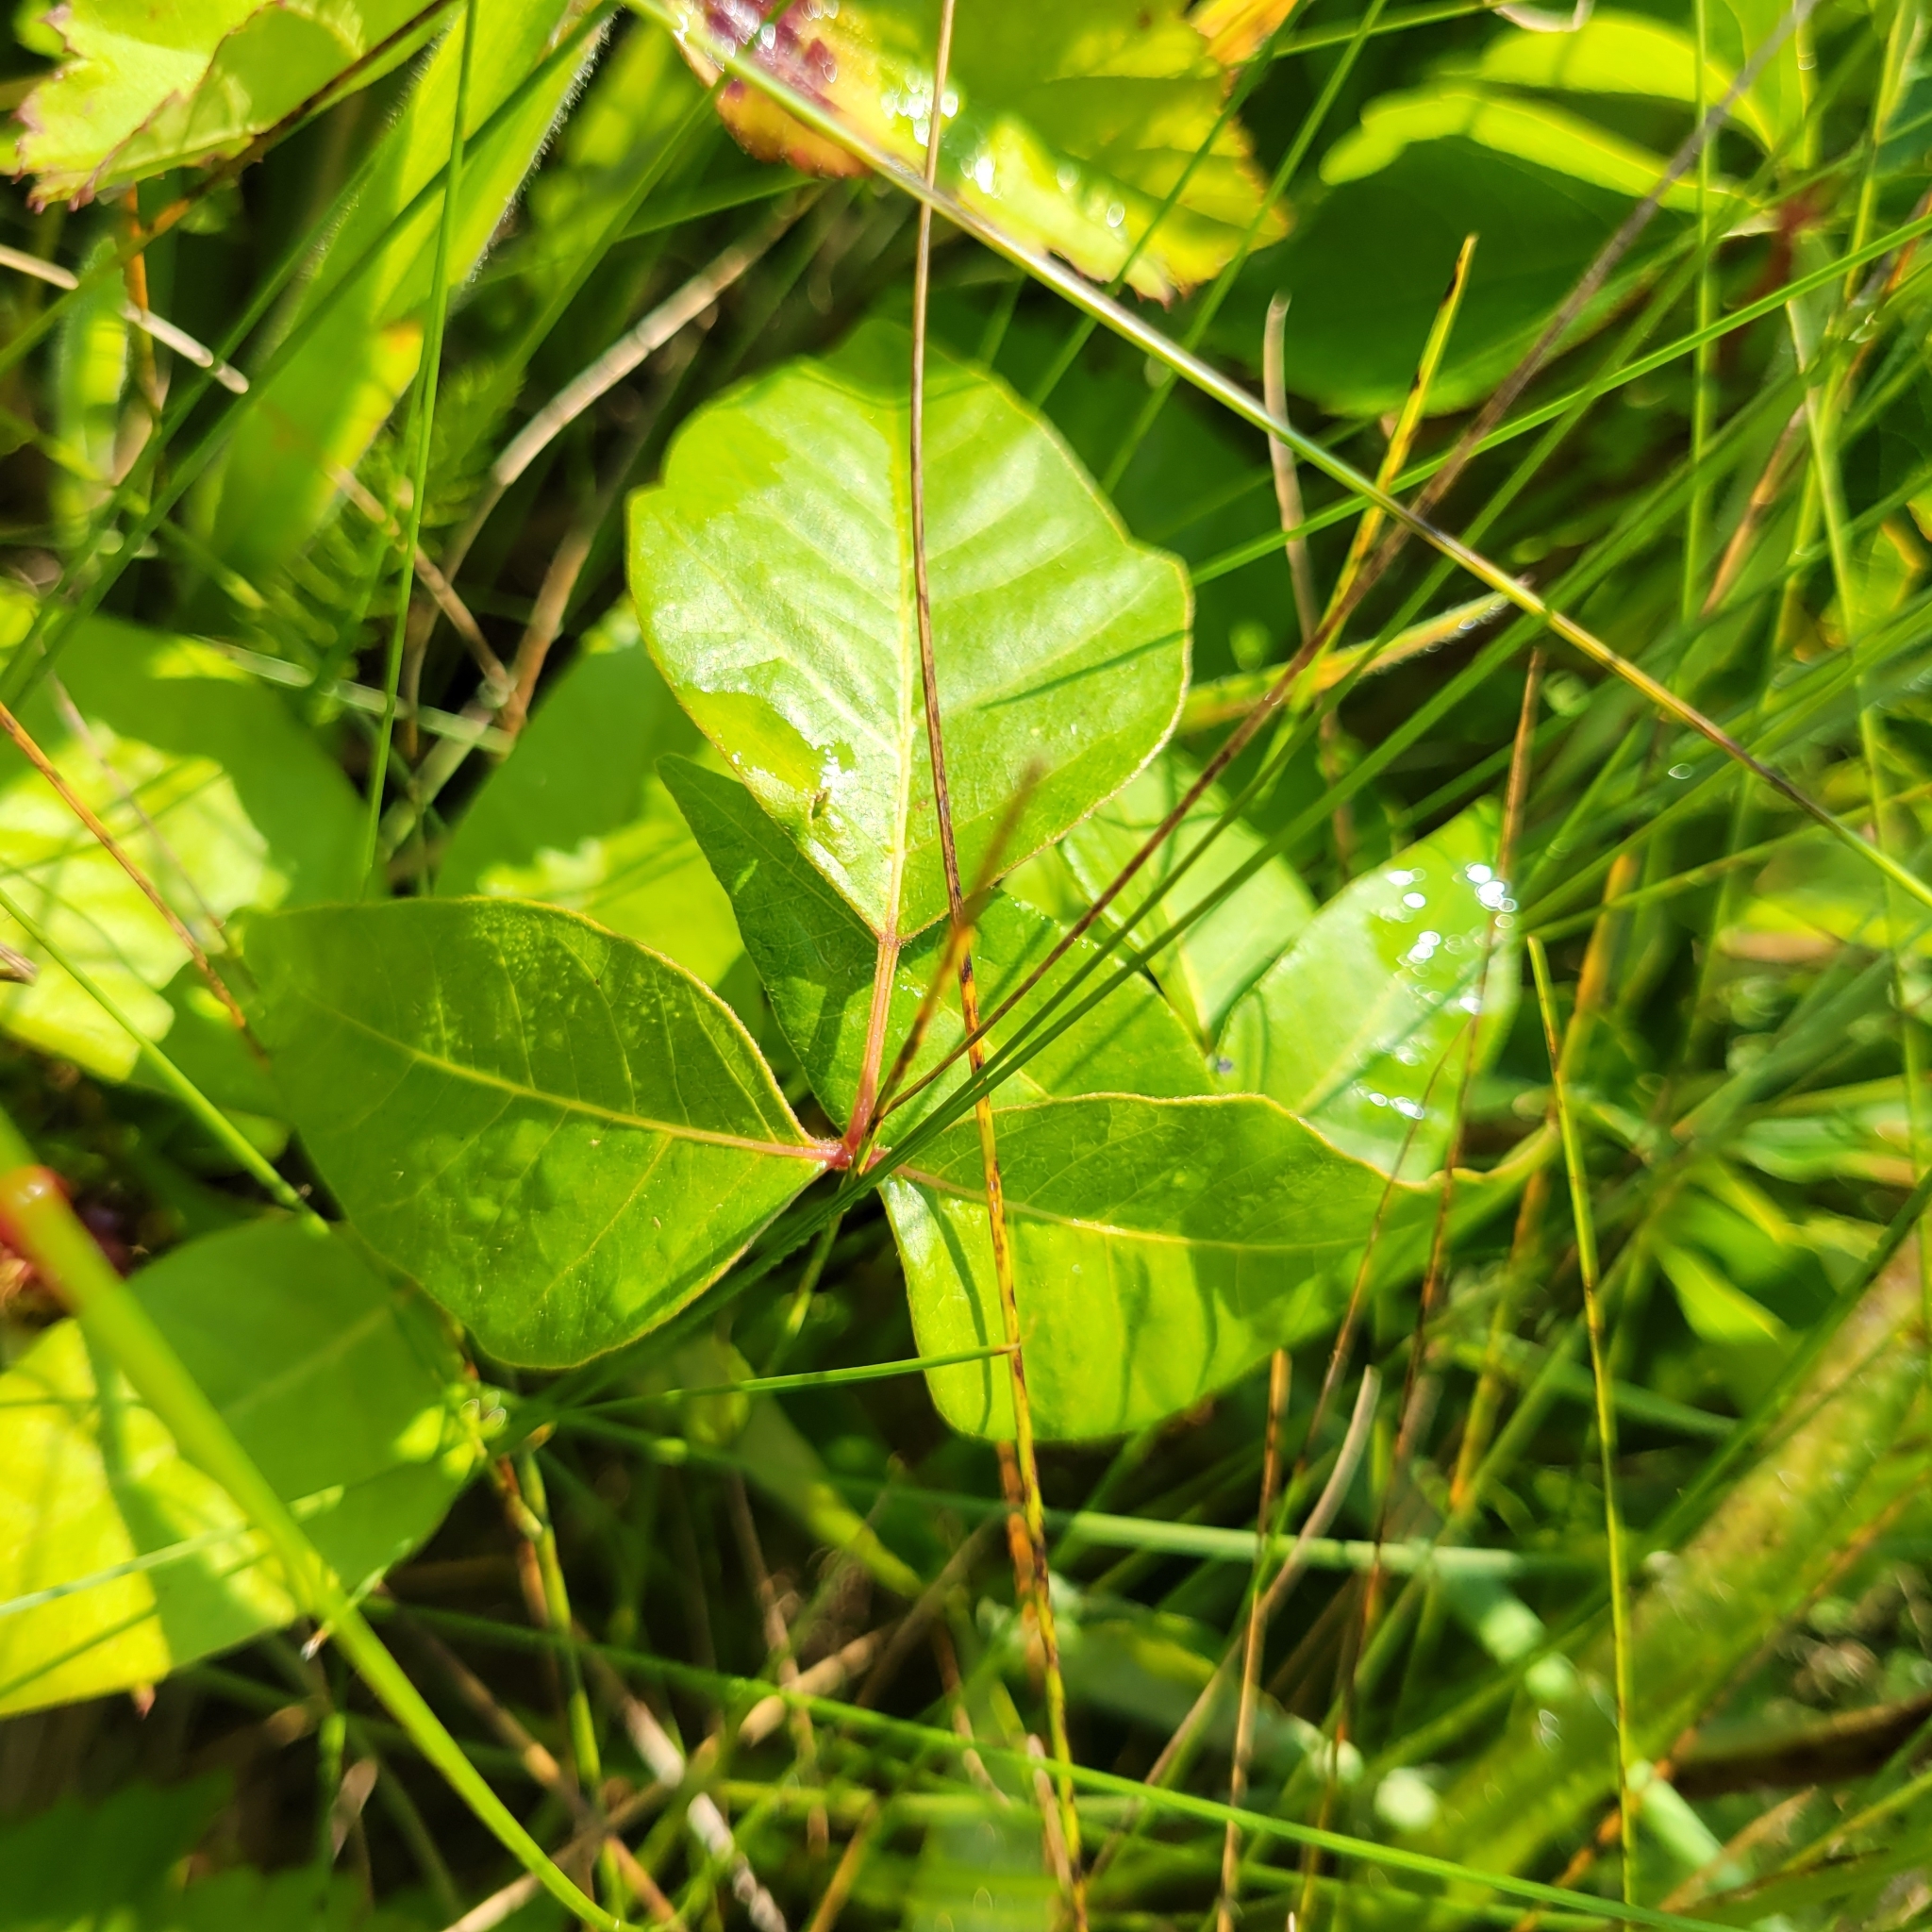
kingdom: Plantae
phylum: Tracheophyta
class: Magnoliopsida
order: Sapindales
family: Anacardiaceae
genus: Toxicodendron
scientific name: Toxicodendron radicans
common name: Poison ivy
